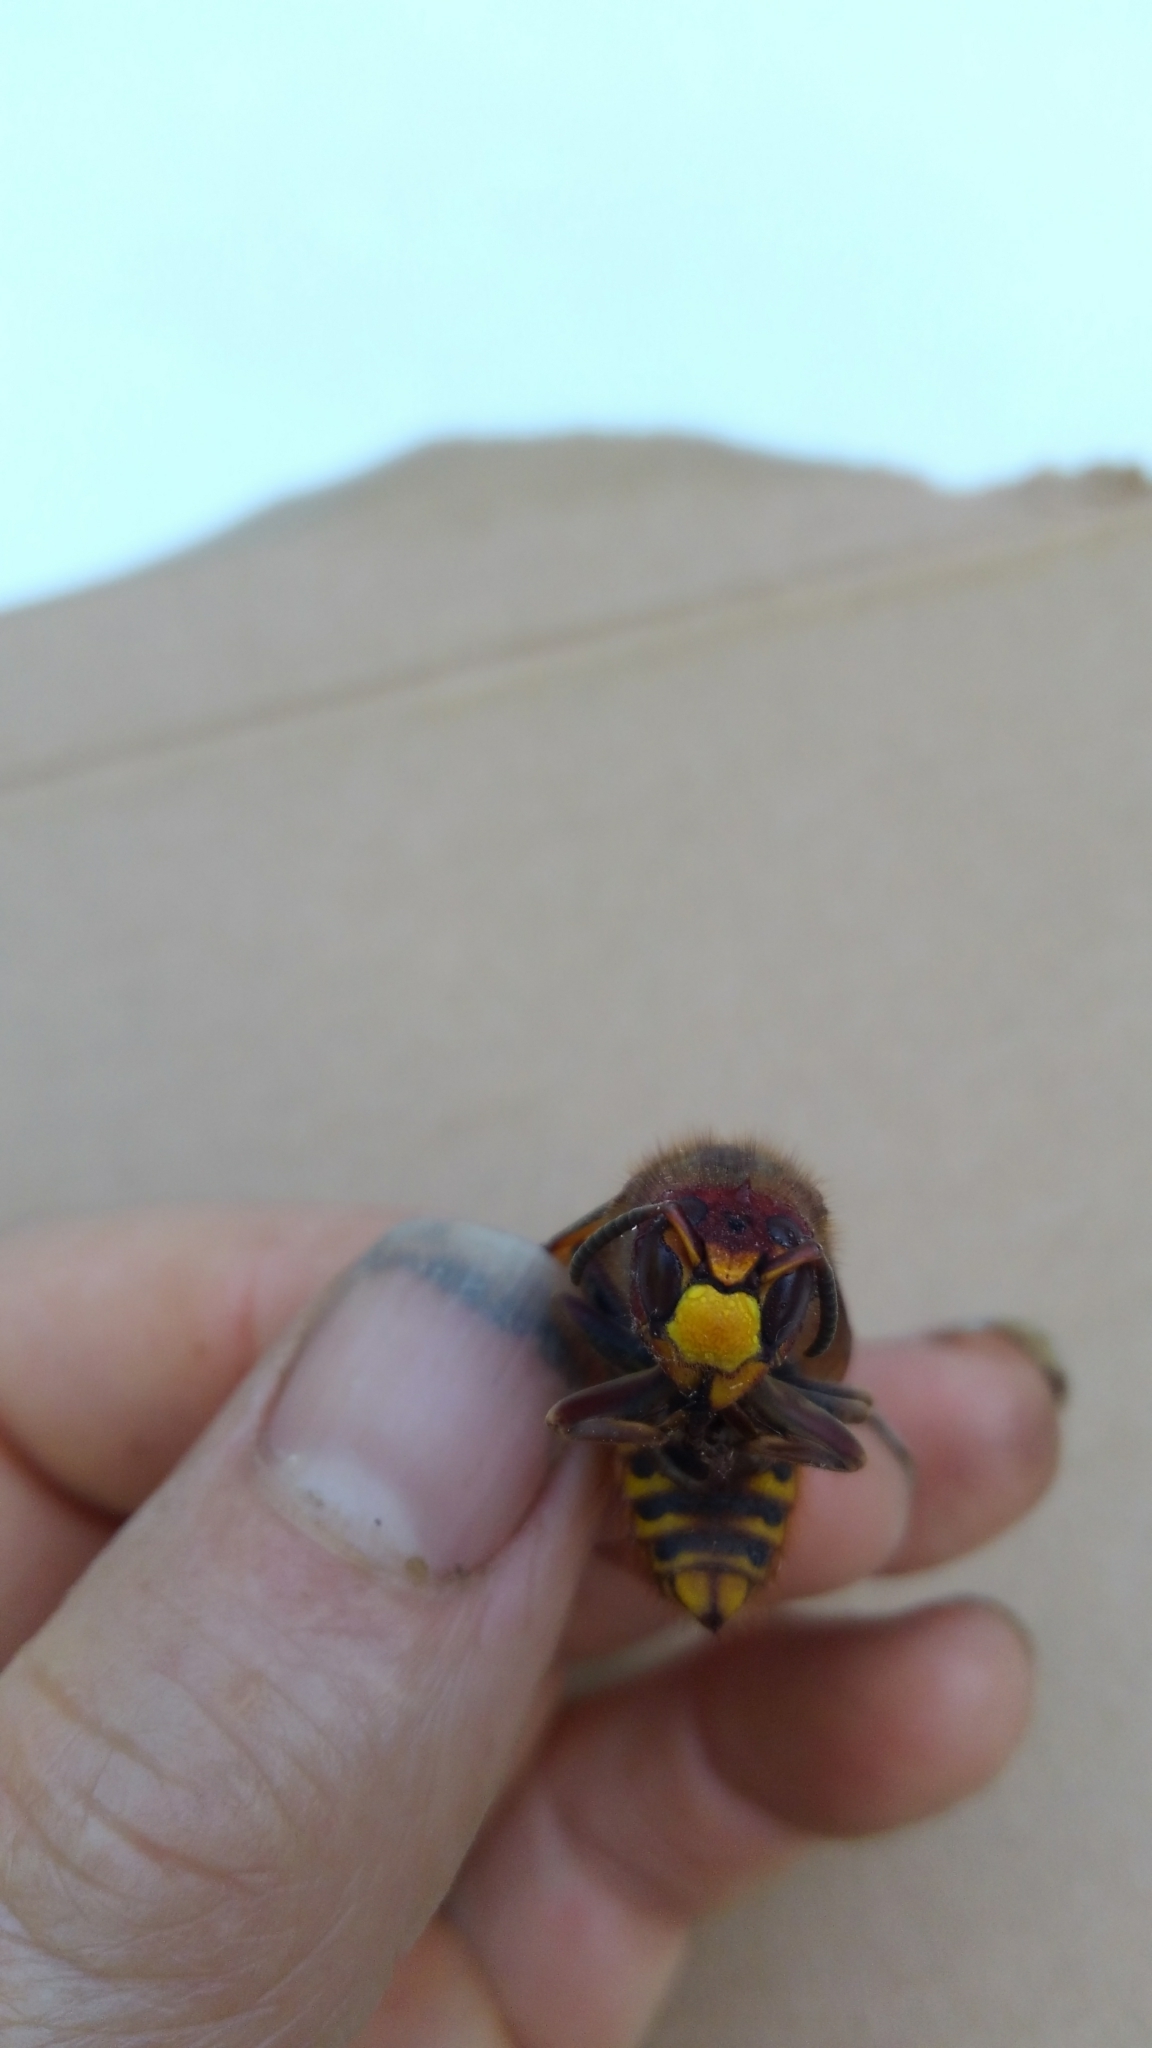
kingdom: Animalia
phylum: Arthropoda
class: Insecta
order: Hymenoptera
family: Vespidae
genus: Vespa
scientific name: Vespa crabro
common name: Hornet
